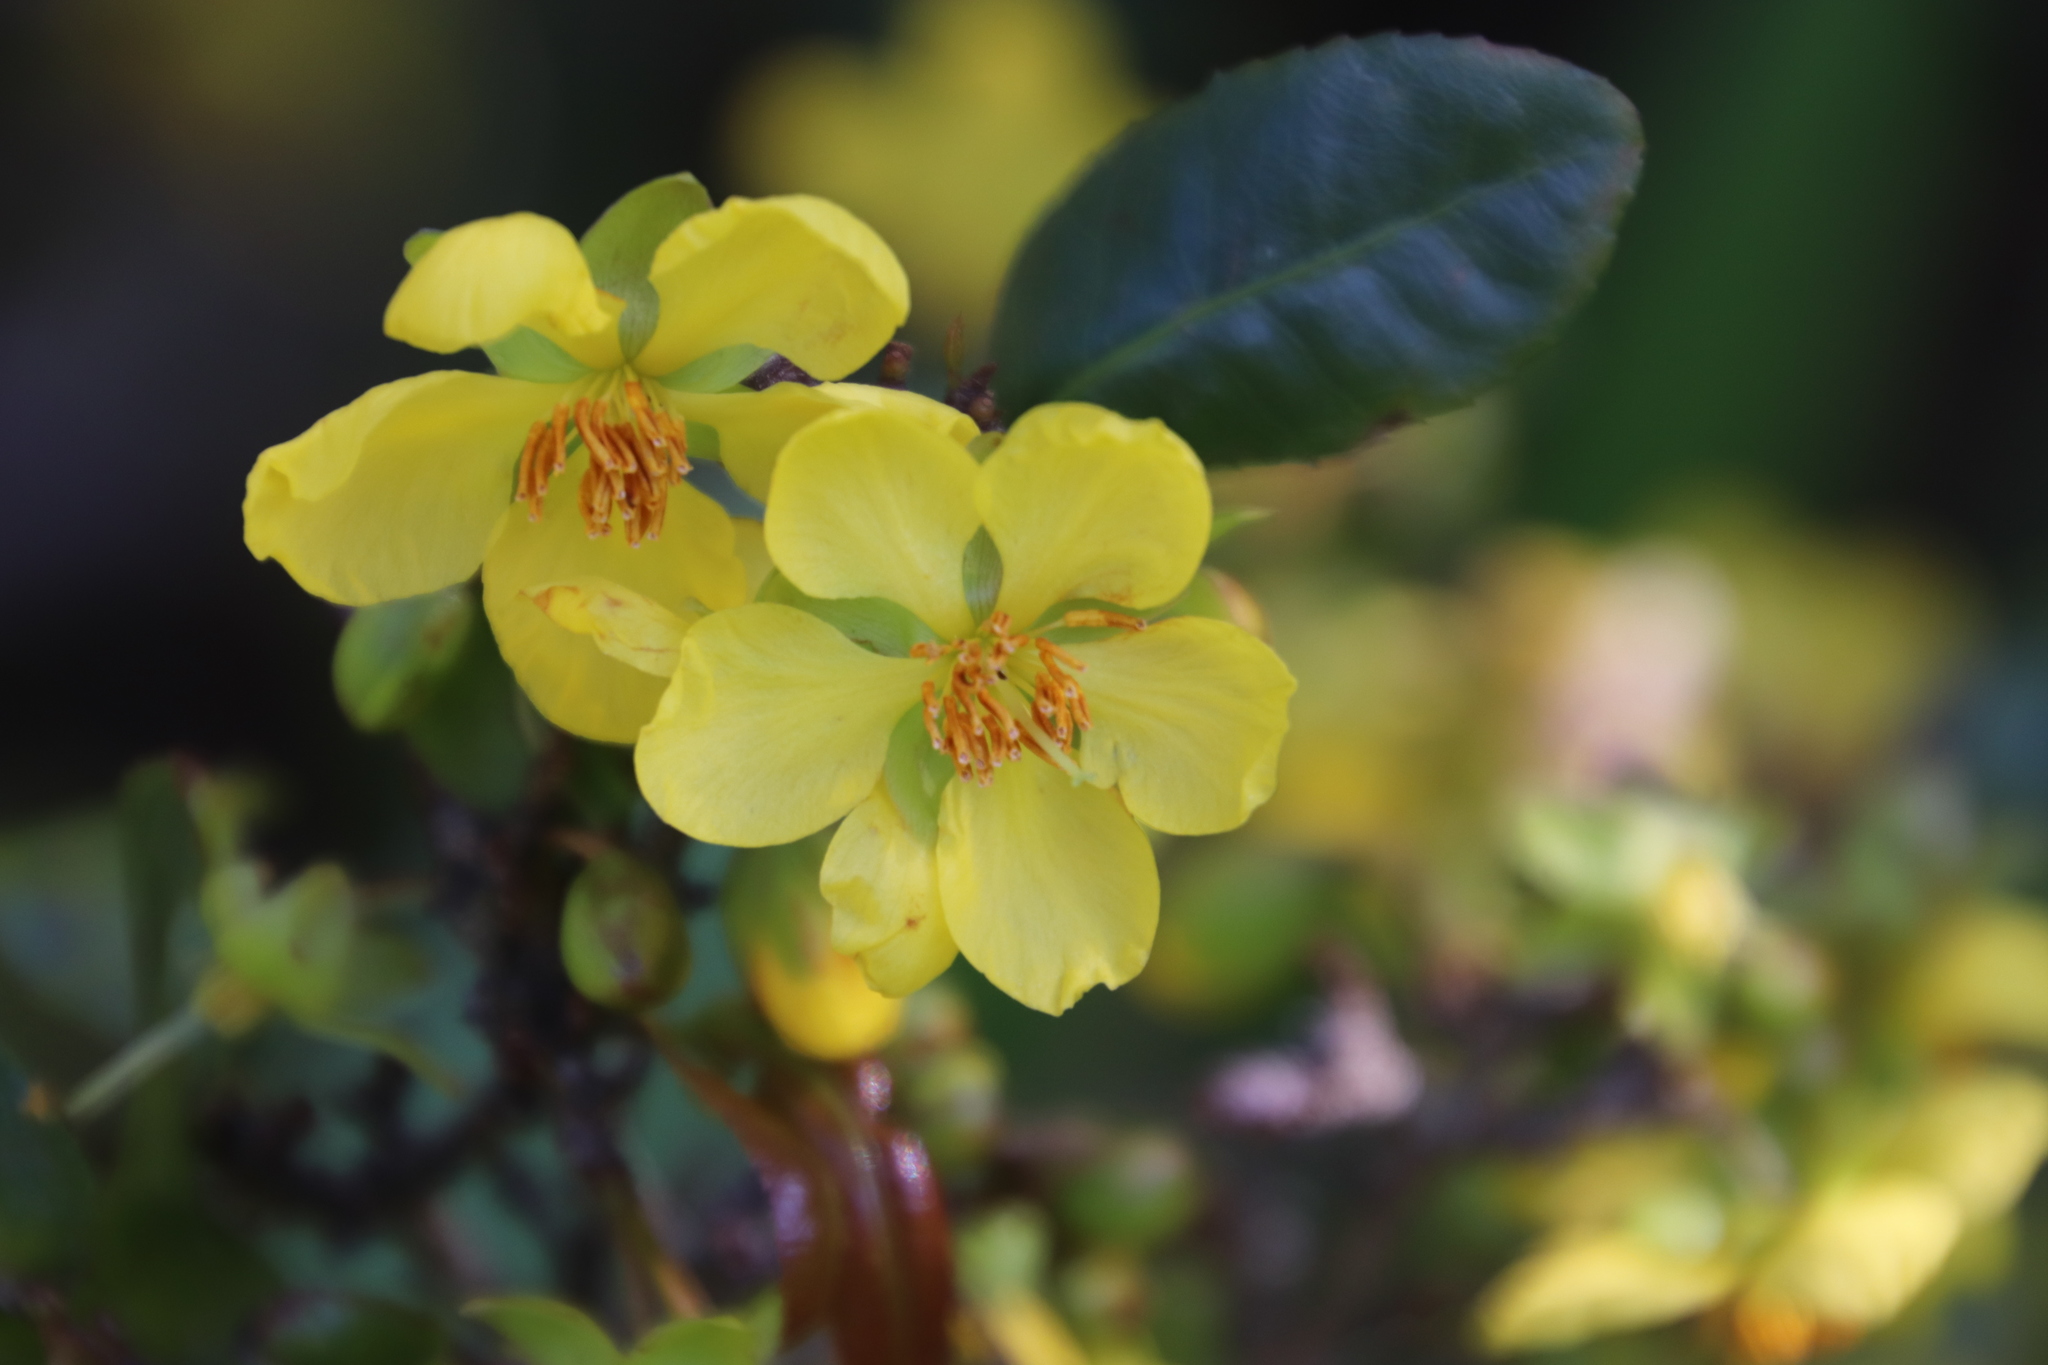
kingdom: Plantae
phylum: Tracheophyta
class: Magnoliopsida
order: Malpighiales
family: Ochnaceae
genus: Ochna
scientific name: Ochna serrulata
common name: Mickey mouse plant
